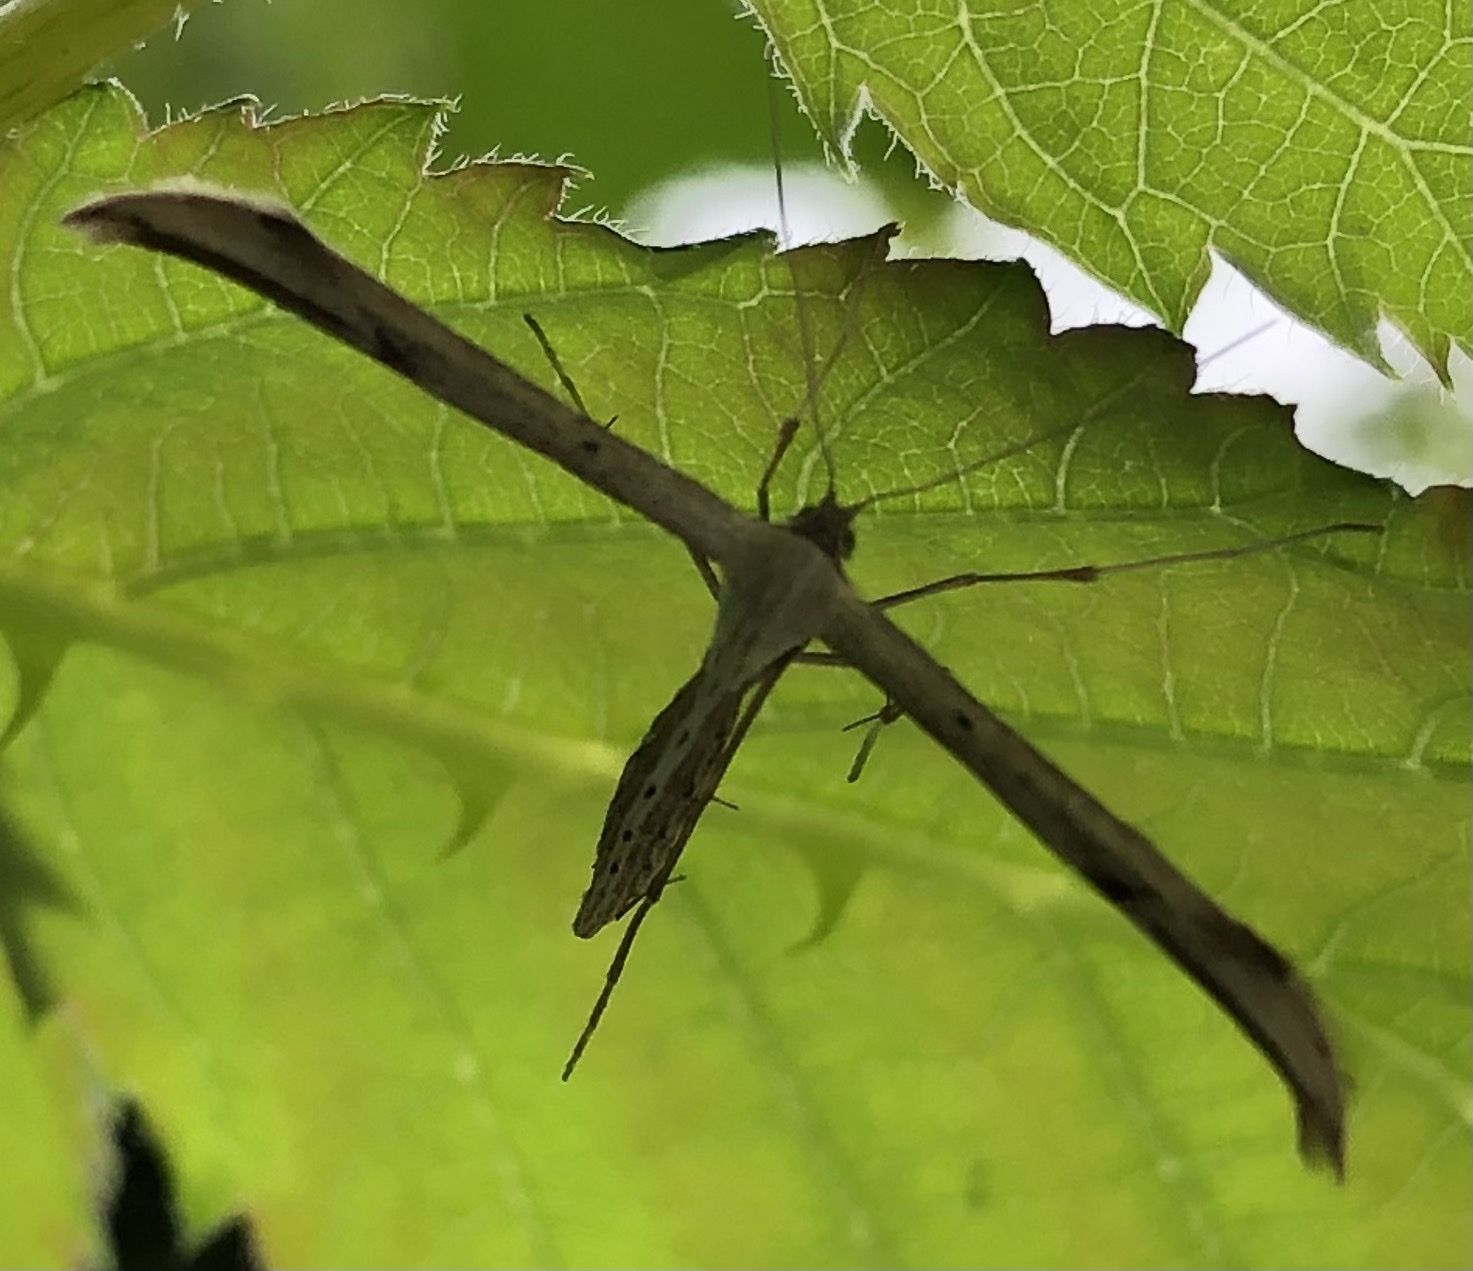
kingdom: Animalia
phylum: Arthropoda
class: Insecta
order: Lepidoptera
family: Pterophoridae
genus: Emmelina
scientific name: Emmelina monodactyla
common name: Common plume
